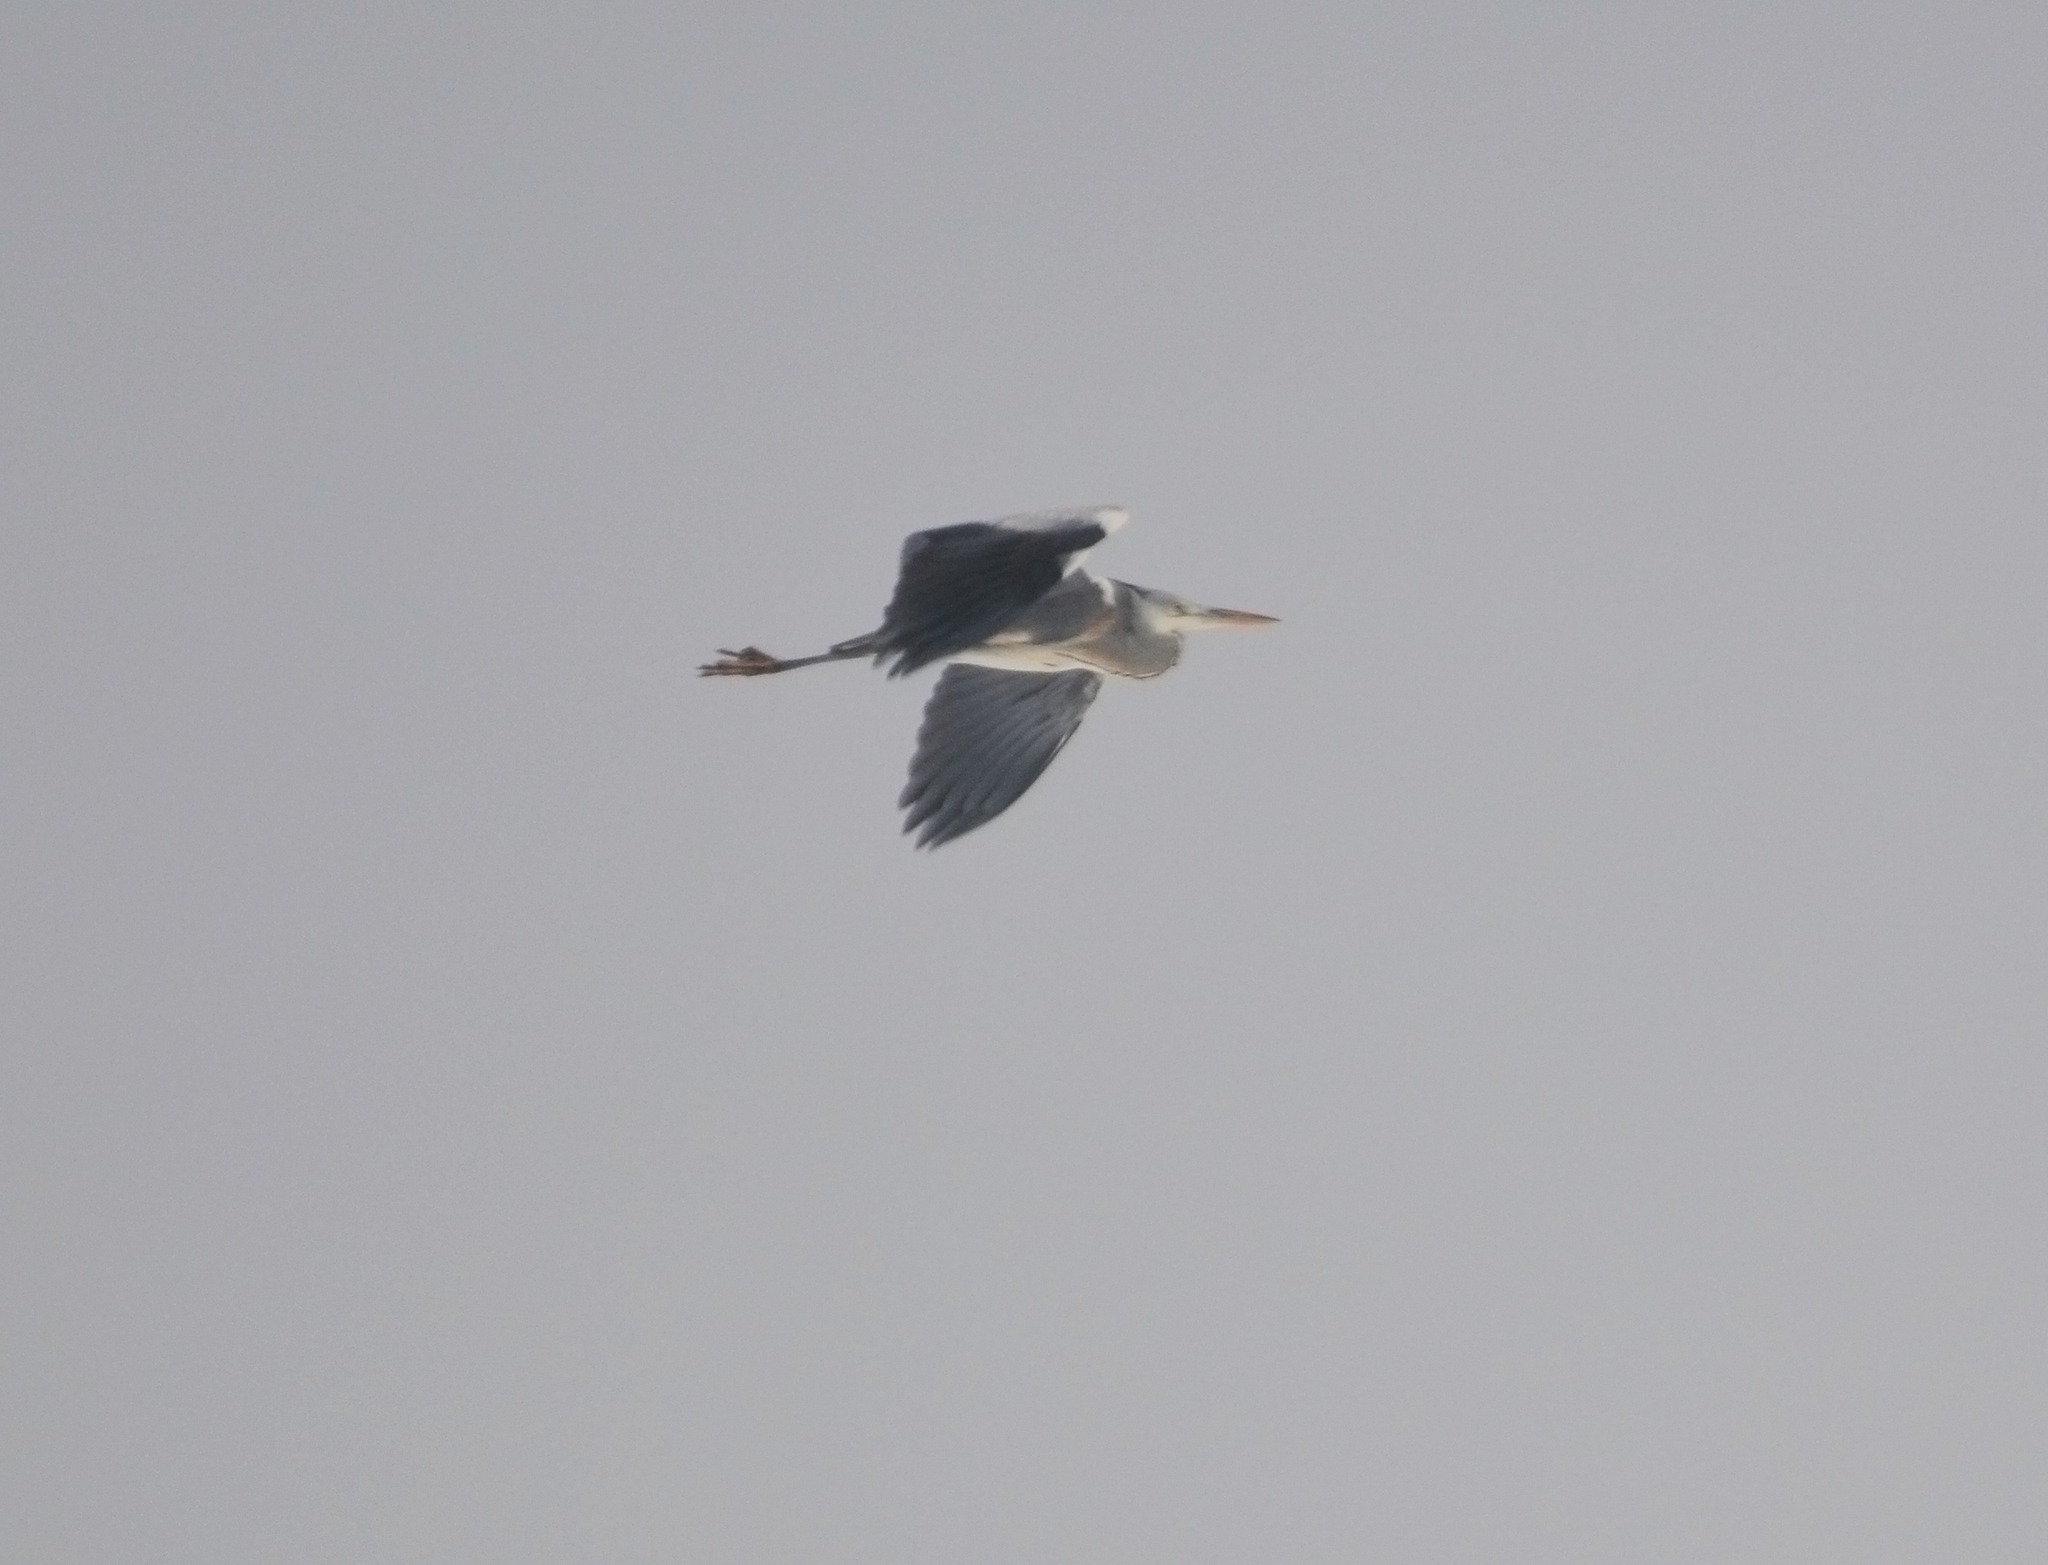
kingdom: Animalia
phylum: Chordata
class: Aves
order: Pelecaniformes
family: Ardeidae
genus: Ardea
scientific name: Ardea cinerea
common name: Grey heron
